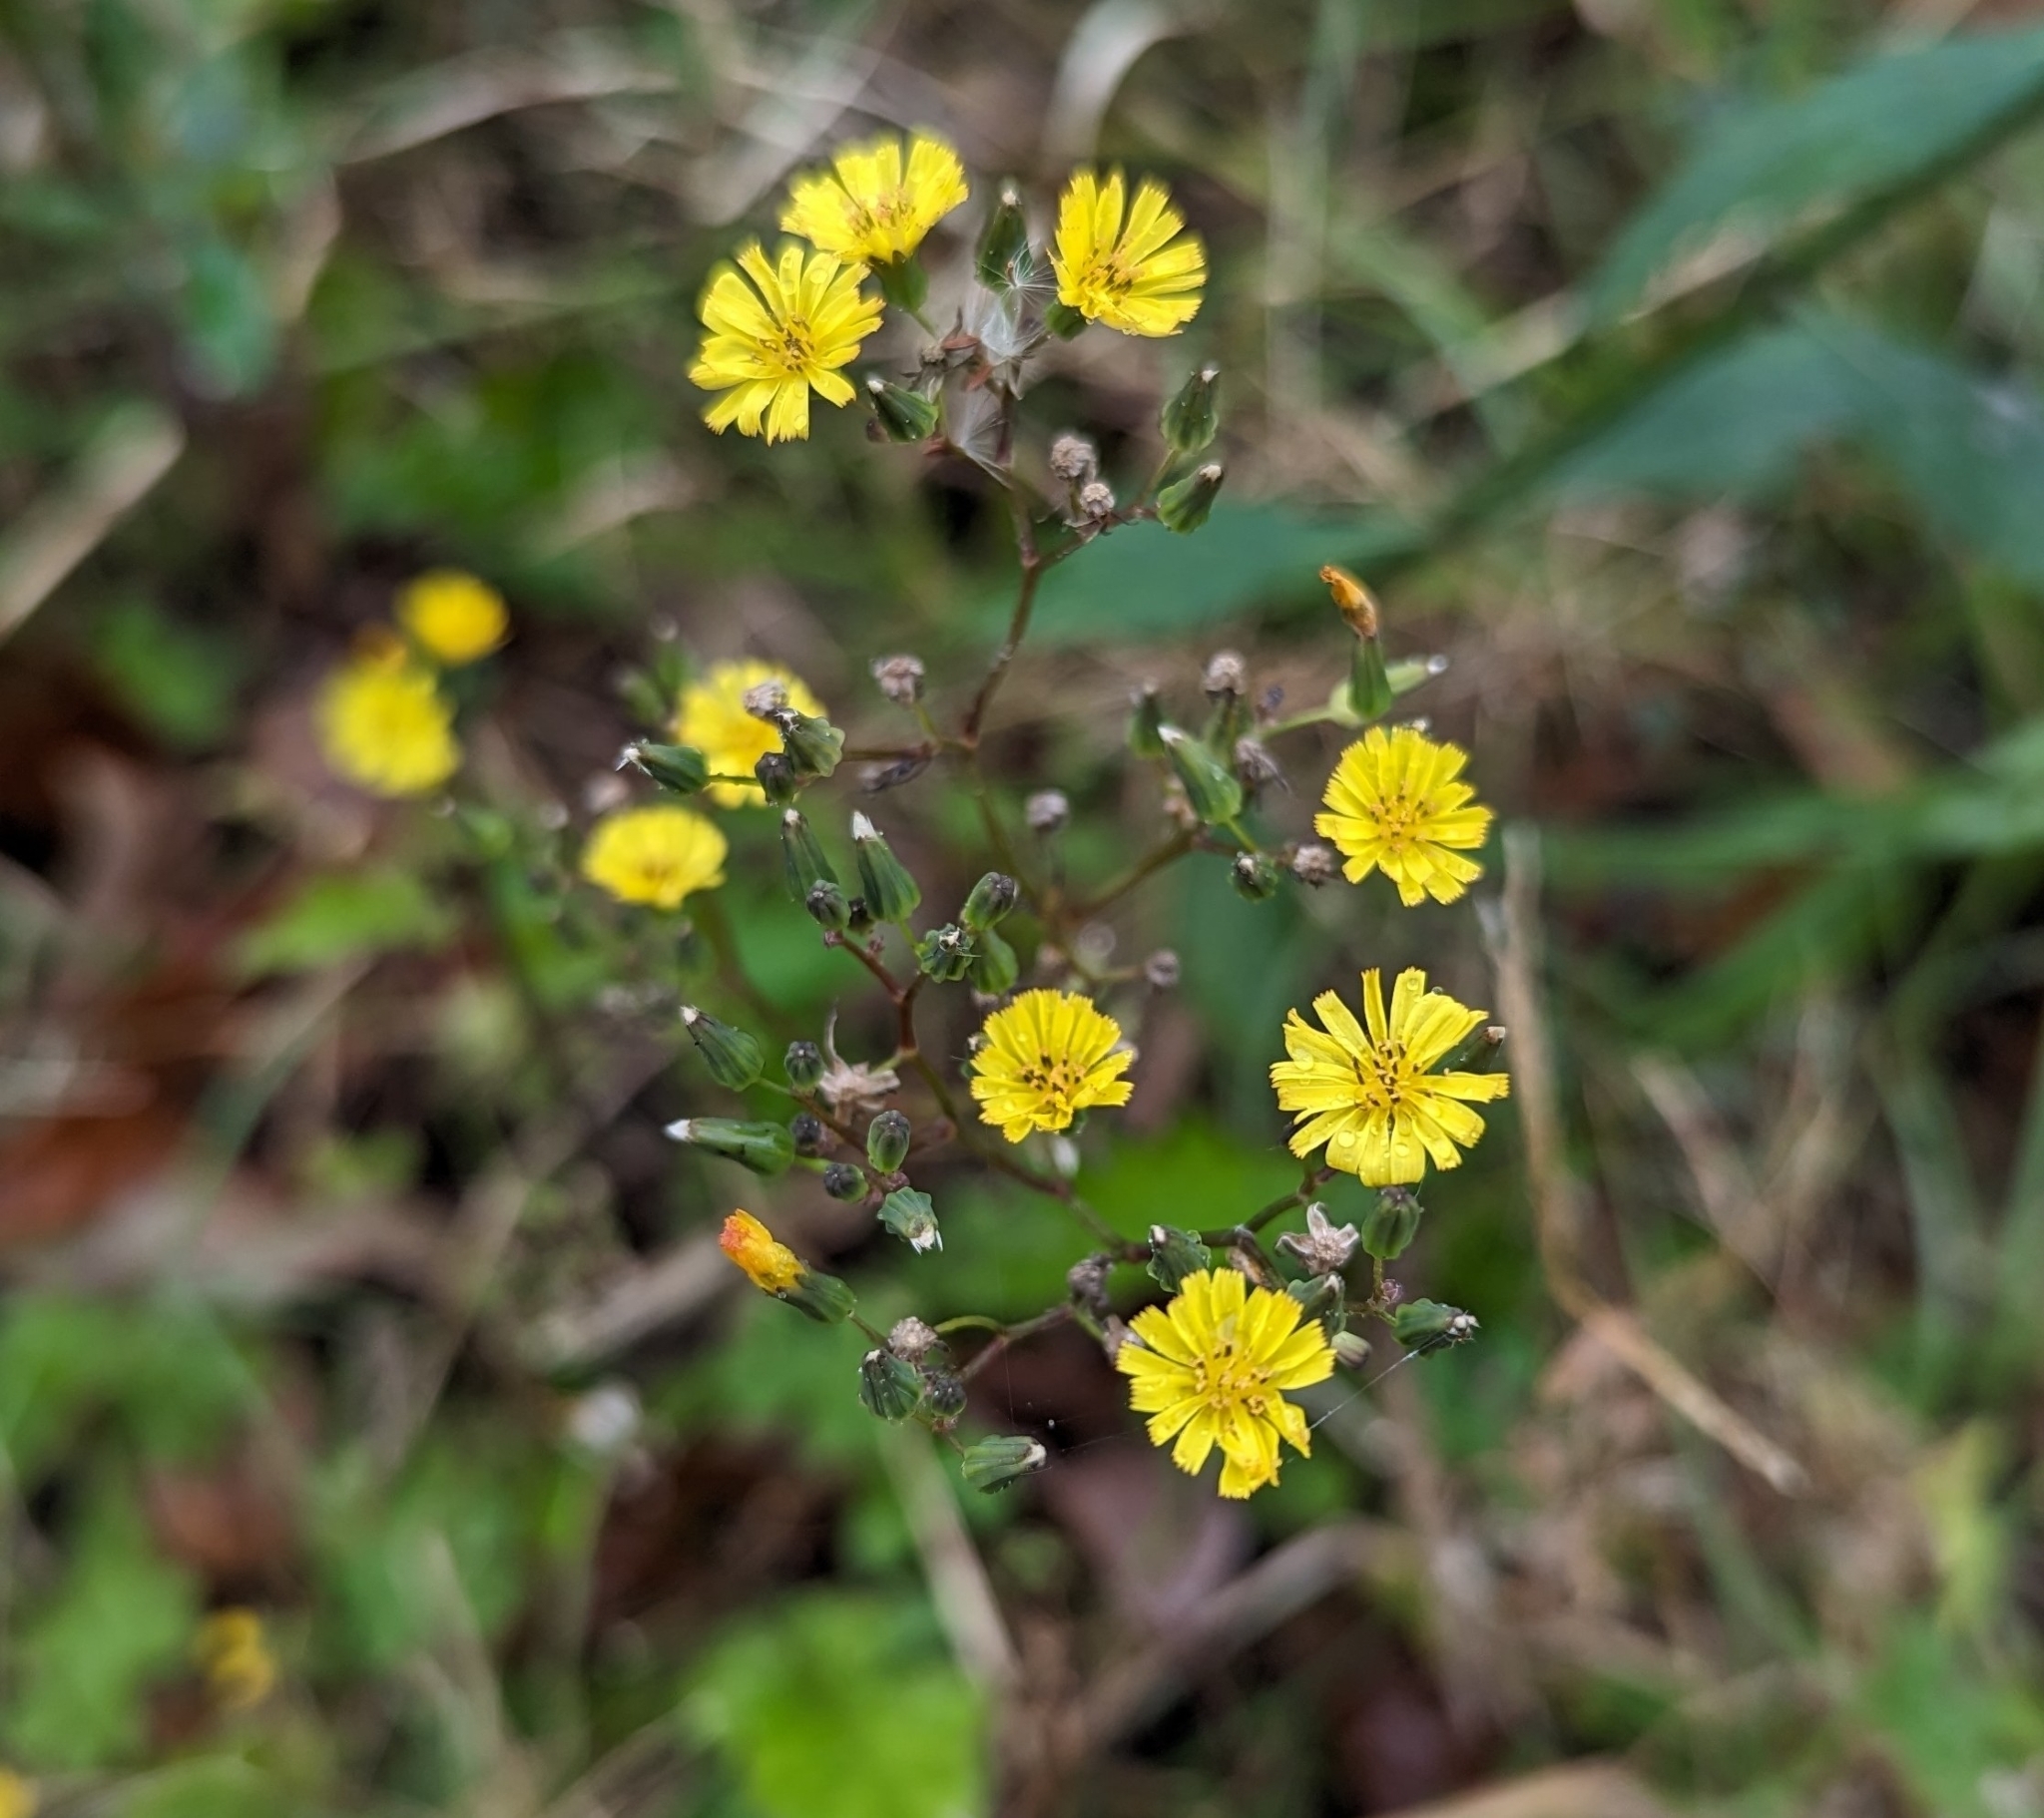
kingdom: Plantae
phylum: Tracheophyta
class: Magnoliopsida
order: Asterales
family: Asteraceae
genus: Youngia
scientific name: Youngia japonica
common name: Oriental false hawksbeard
